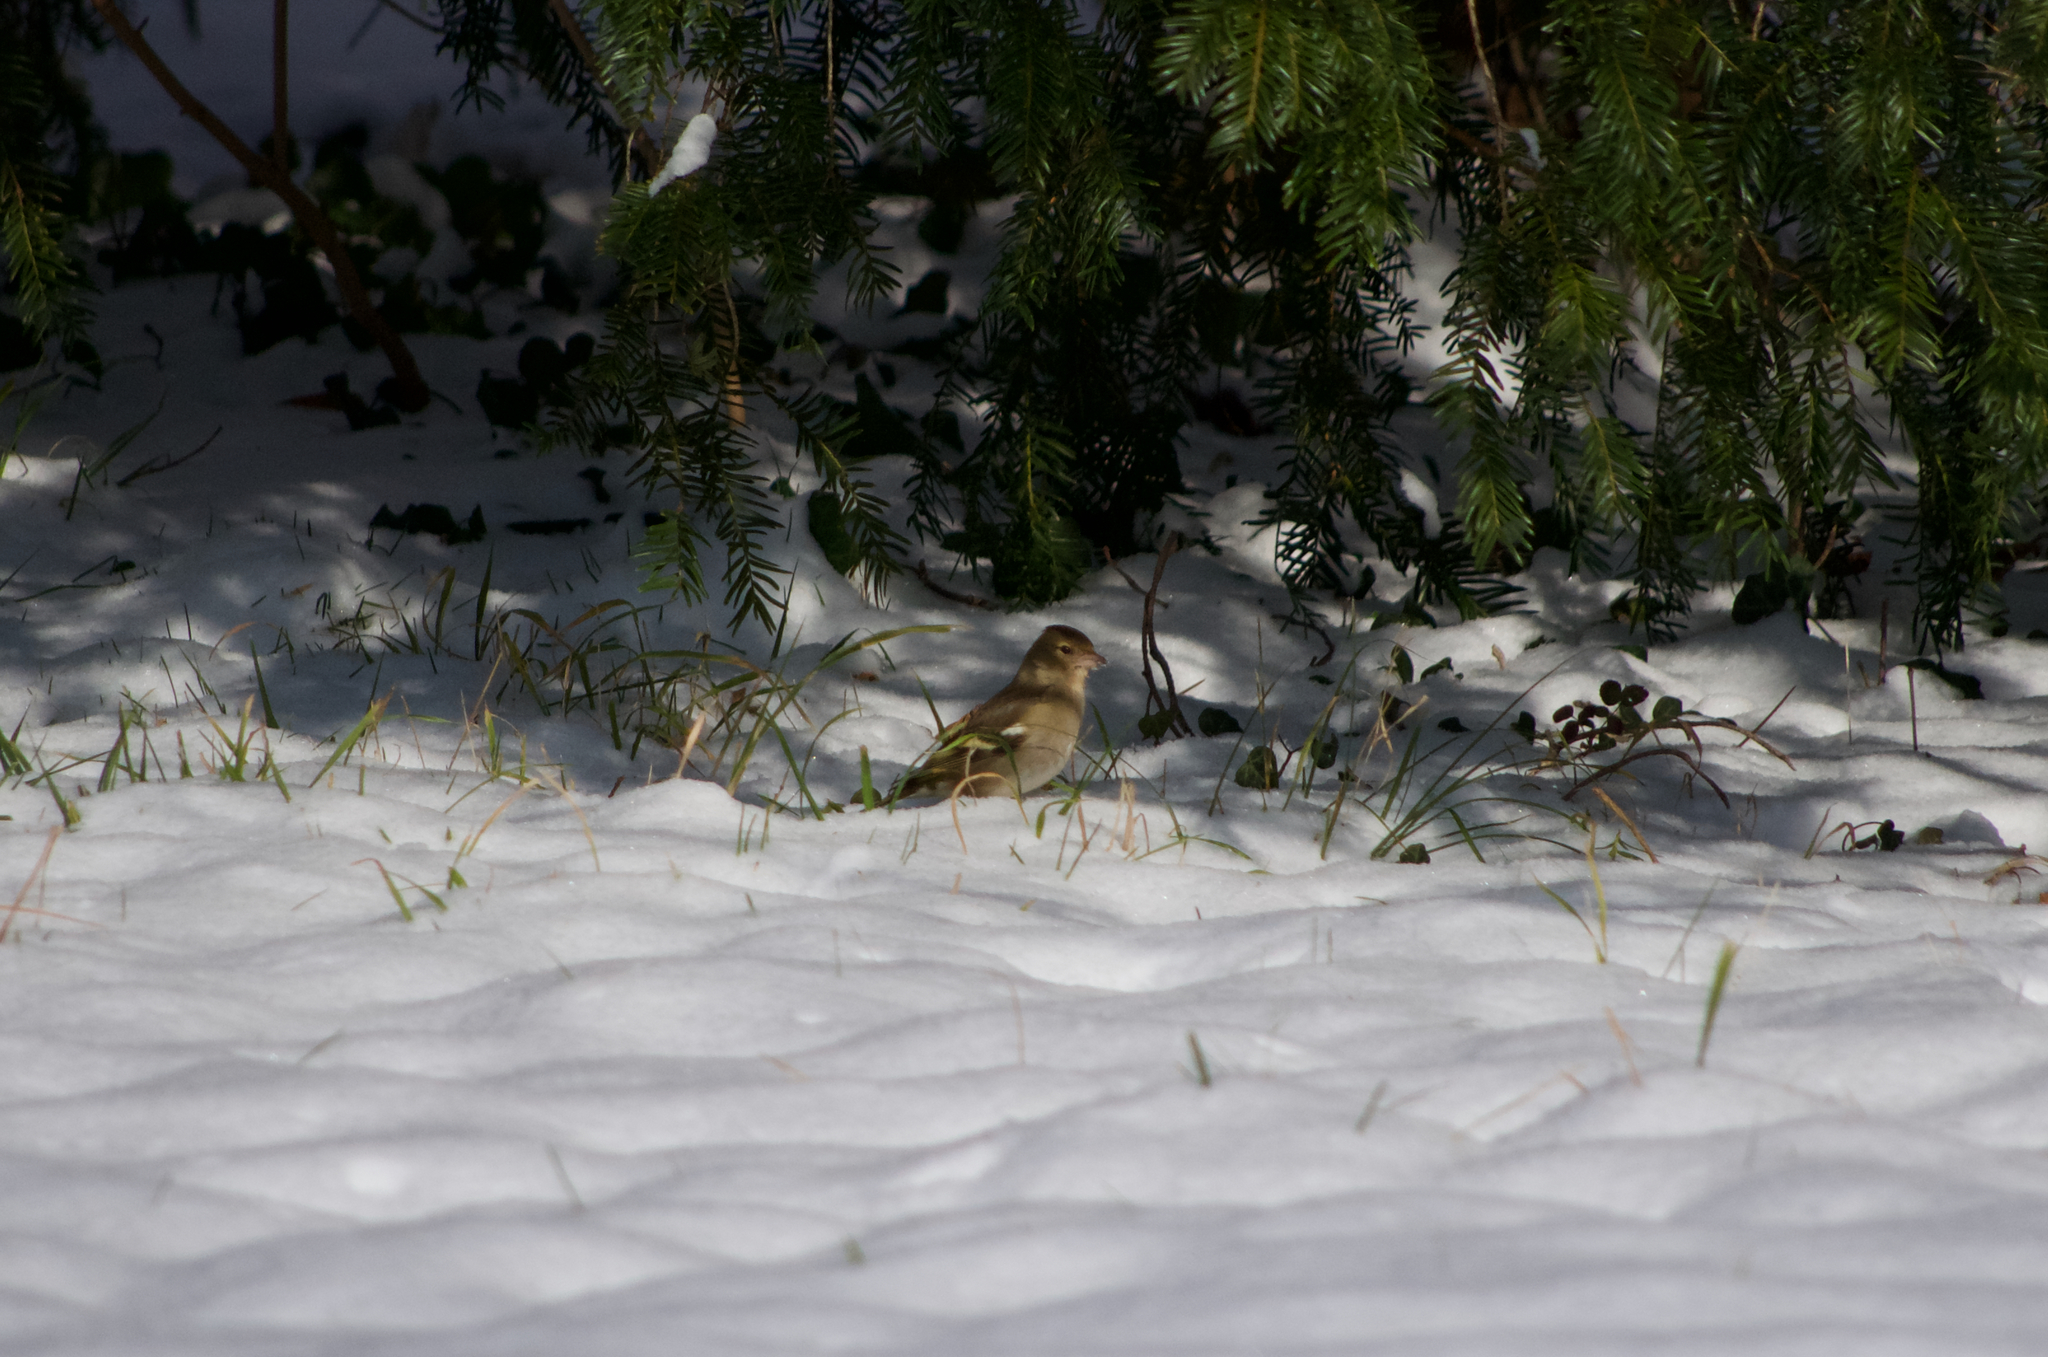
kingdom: Animalia
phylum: Chordata
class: Aves
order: Passeriformes
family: Fringillidae
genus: Fringilla
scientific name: Fringilla coelebs
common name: Common chaffinch
